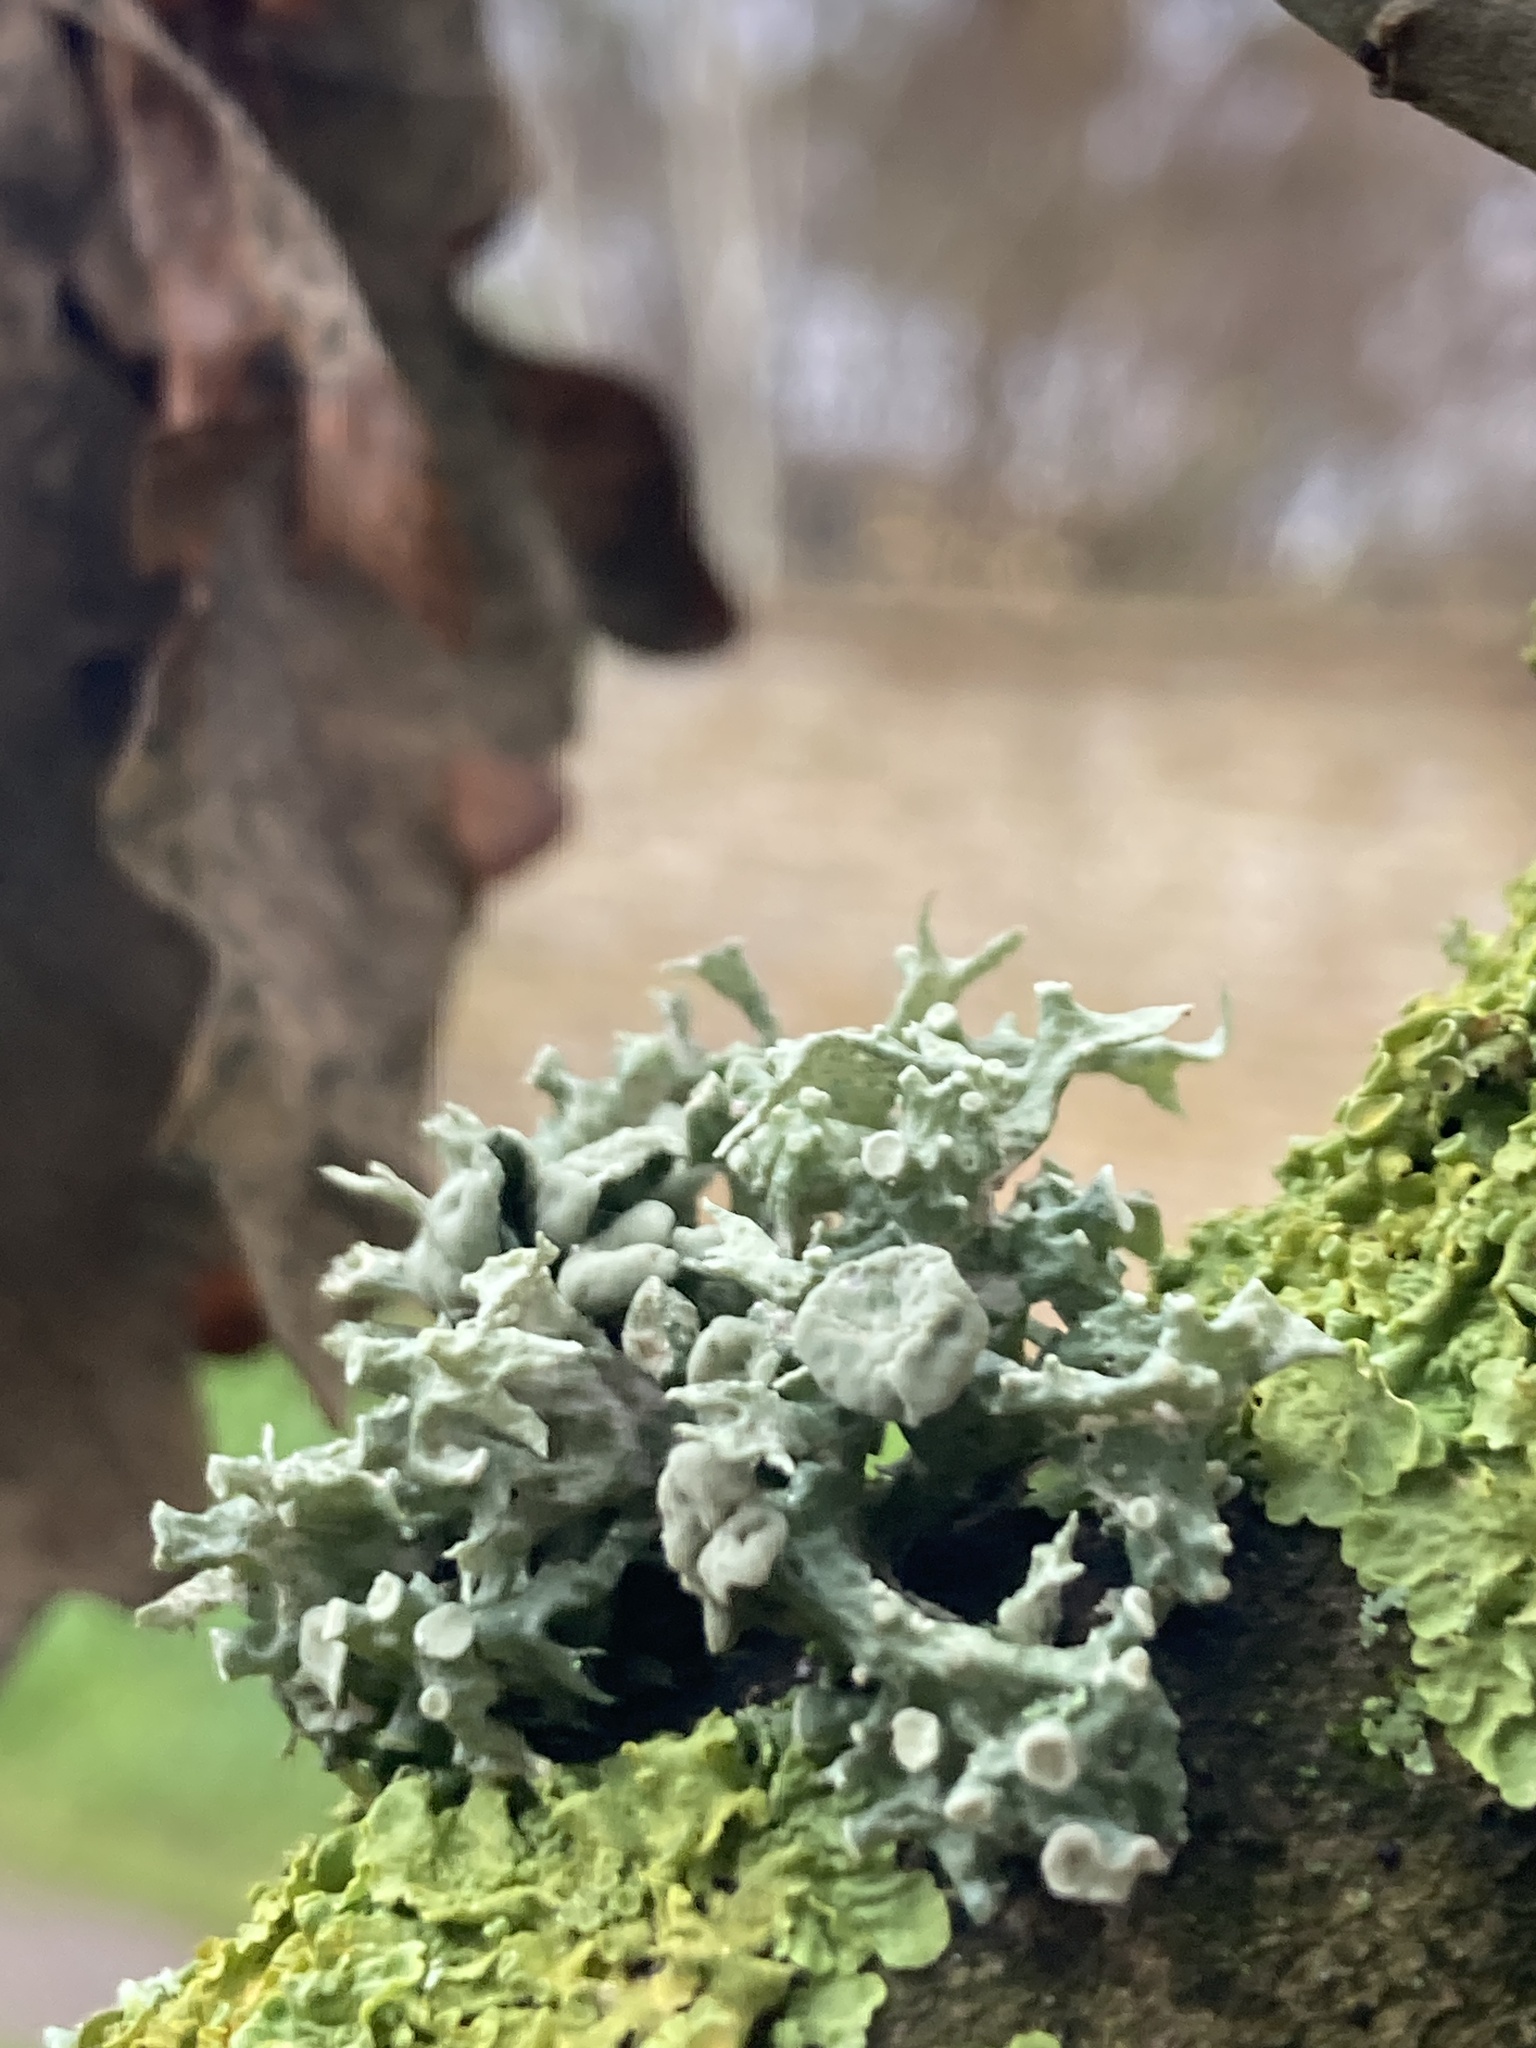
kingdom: Fungi
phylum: Ascomycota
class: Lecanoromycetes
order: Lecanorales
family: Ramalinaceae
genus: Ramalina
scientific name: Ramalina fastigiata
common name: Dotted ribbon lichen
